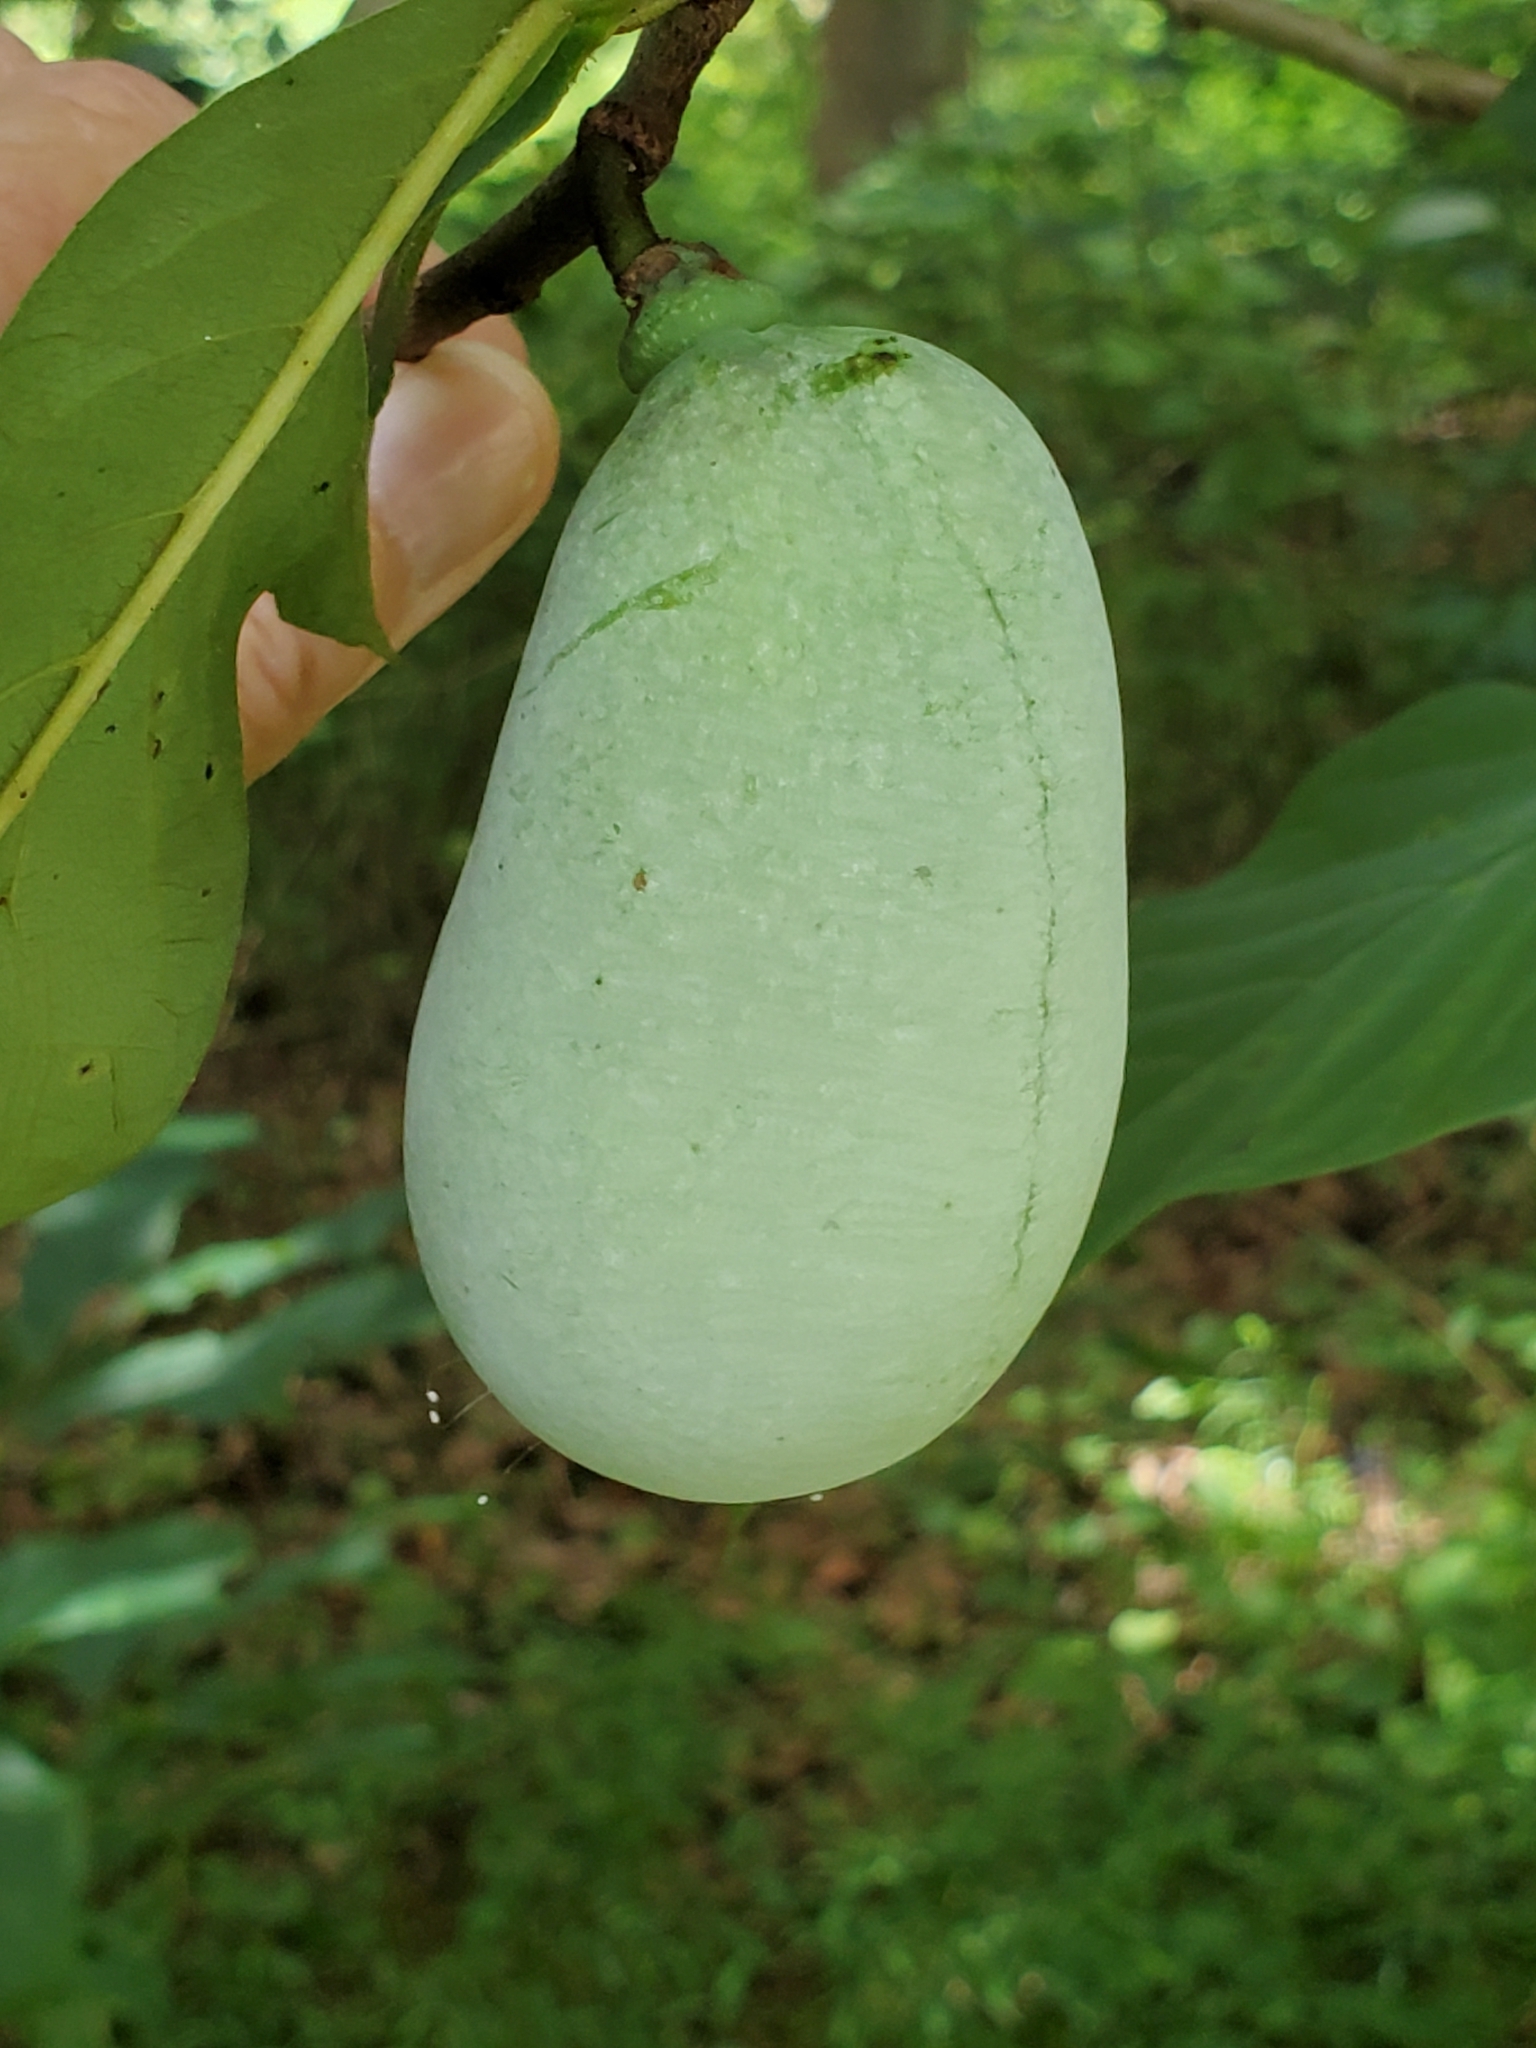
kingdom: Plantae
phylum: Tracheophyta
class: Magnoliopsida
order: Magnoliales
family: Annonaceae
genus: Asimina
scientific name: Asimina triloba
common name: Dog-banana
